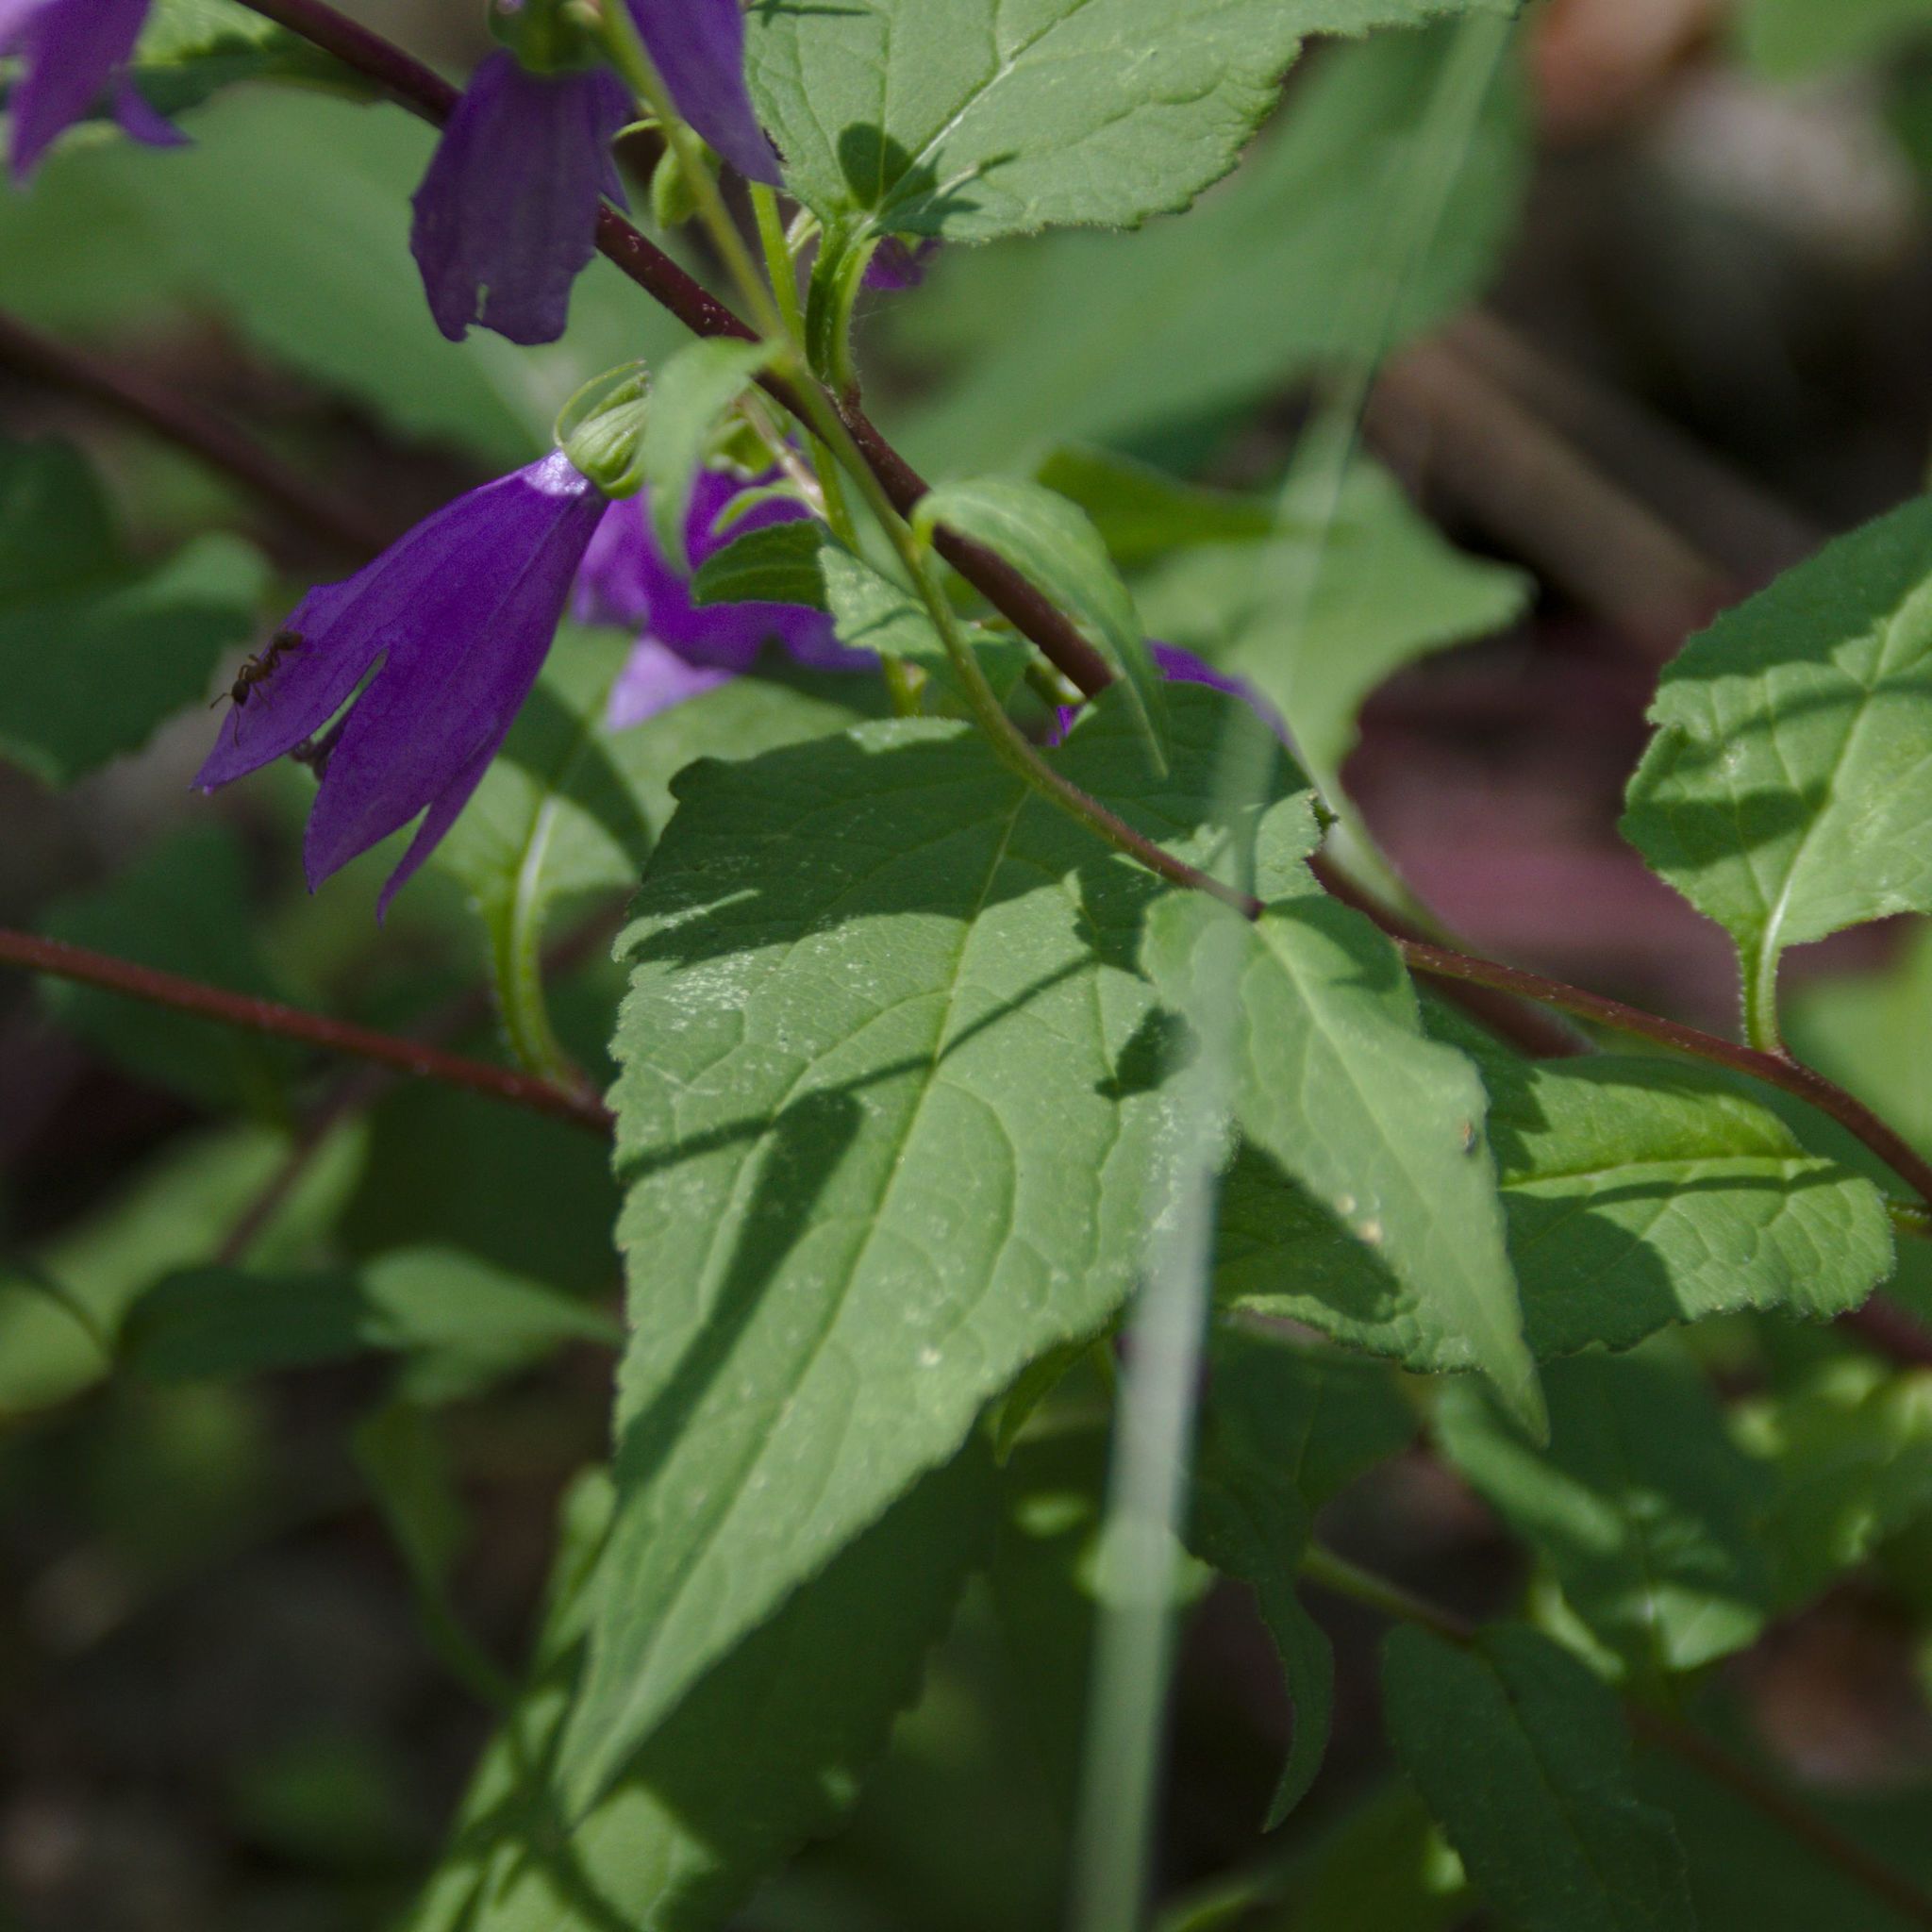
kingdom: Plantae
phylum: Tracheophyta
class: Magnoliopsida
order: Asterales
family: Campanulaceae
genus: Campanula
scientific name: Campanula rapunculoides
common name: Creeping bellflower
